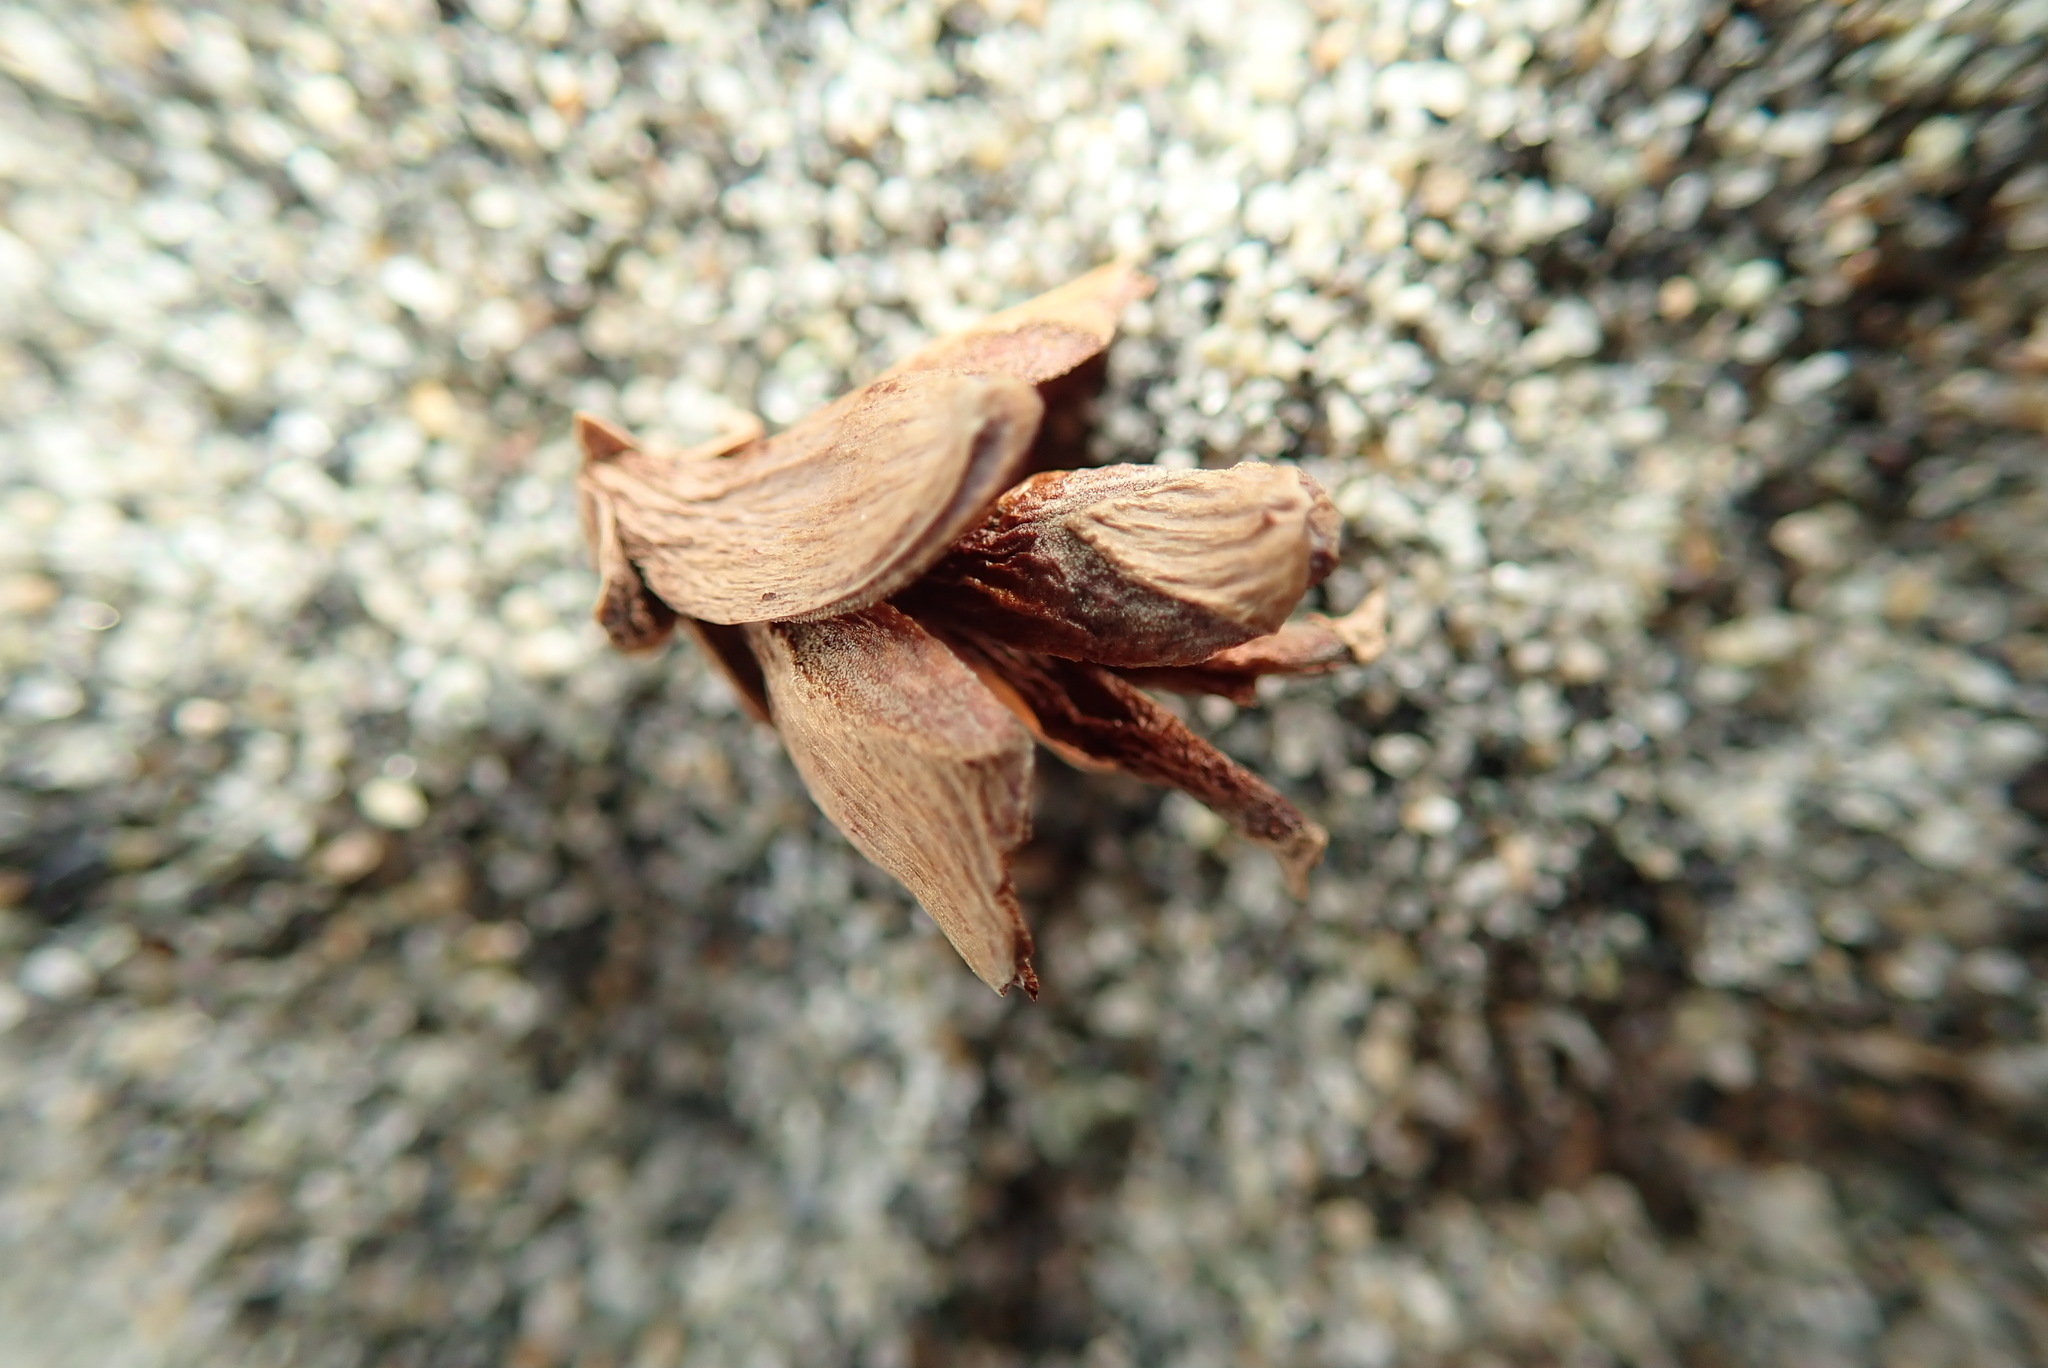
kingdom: Plantae
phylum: Tracheophyta
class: Pinopsida
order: Pinales
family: Cupressaceae
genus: Thuja
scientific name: Thuja plicata
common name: Western red-cedar
